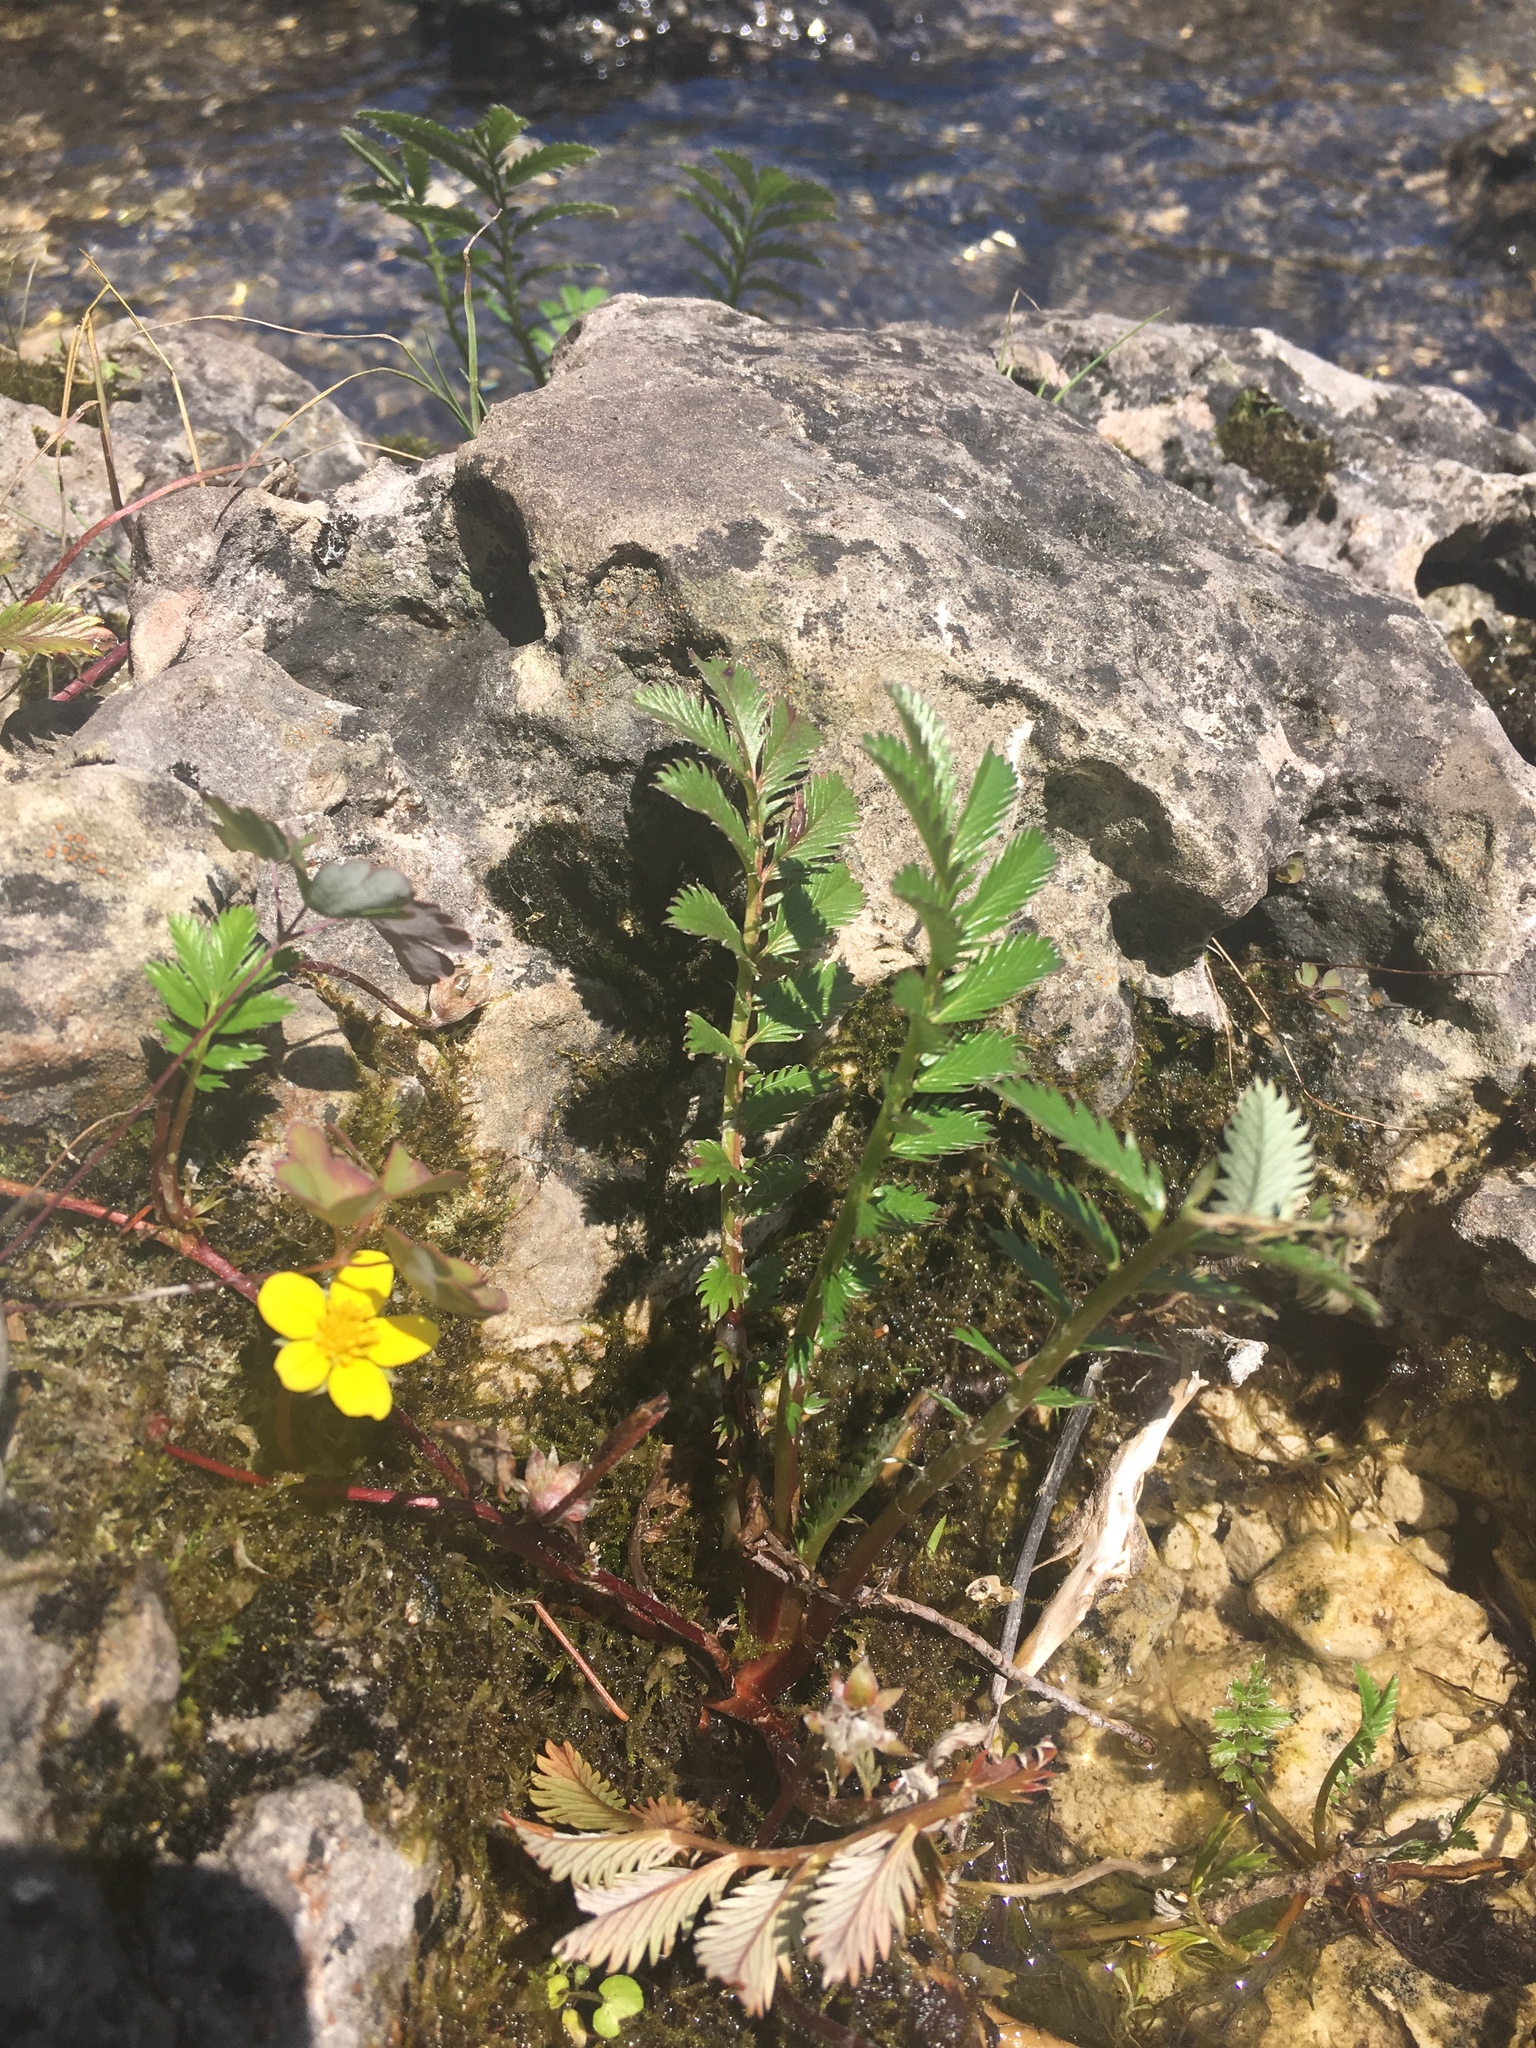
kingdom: Plantae
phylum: Tracheophyta
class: Magnoliopsida
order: Rosales
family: Rosaceae
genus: Argentina
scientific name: Argentina anserina
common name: Common silverweed
